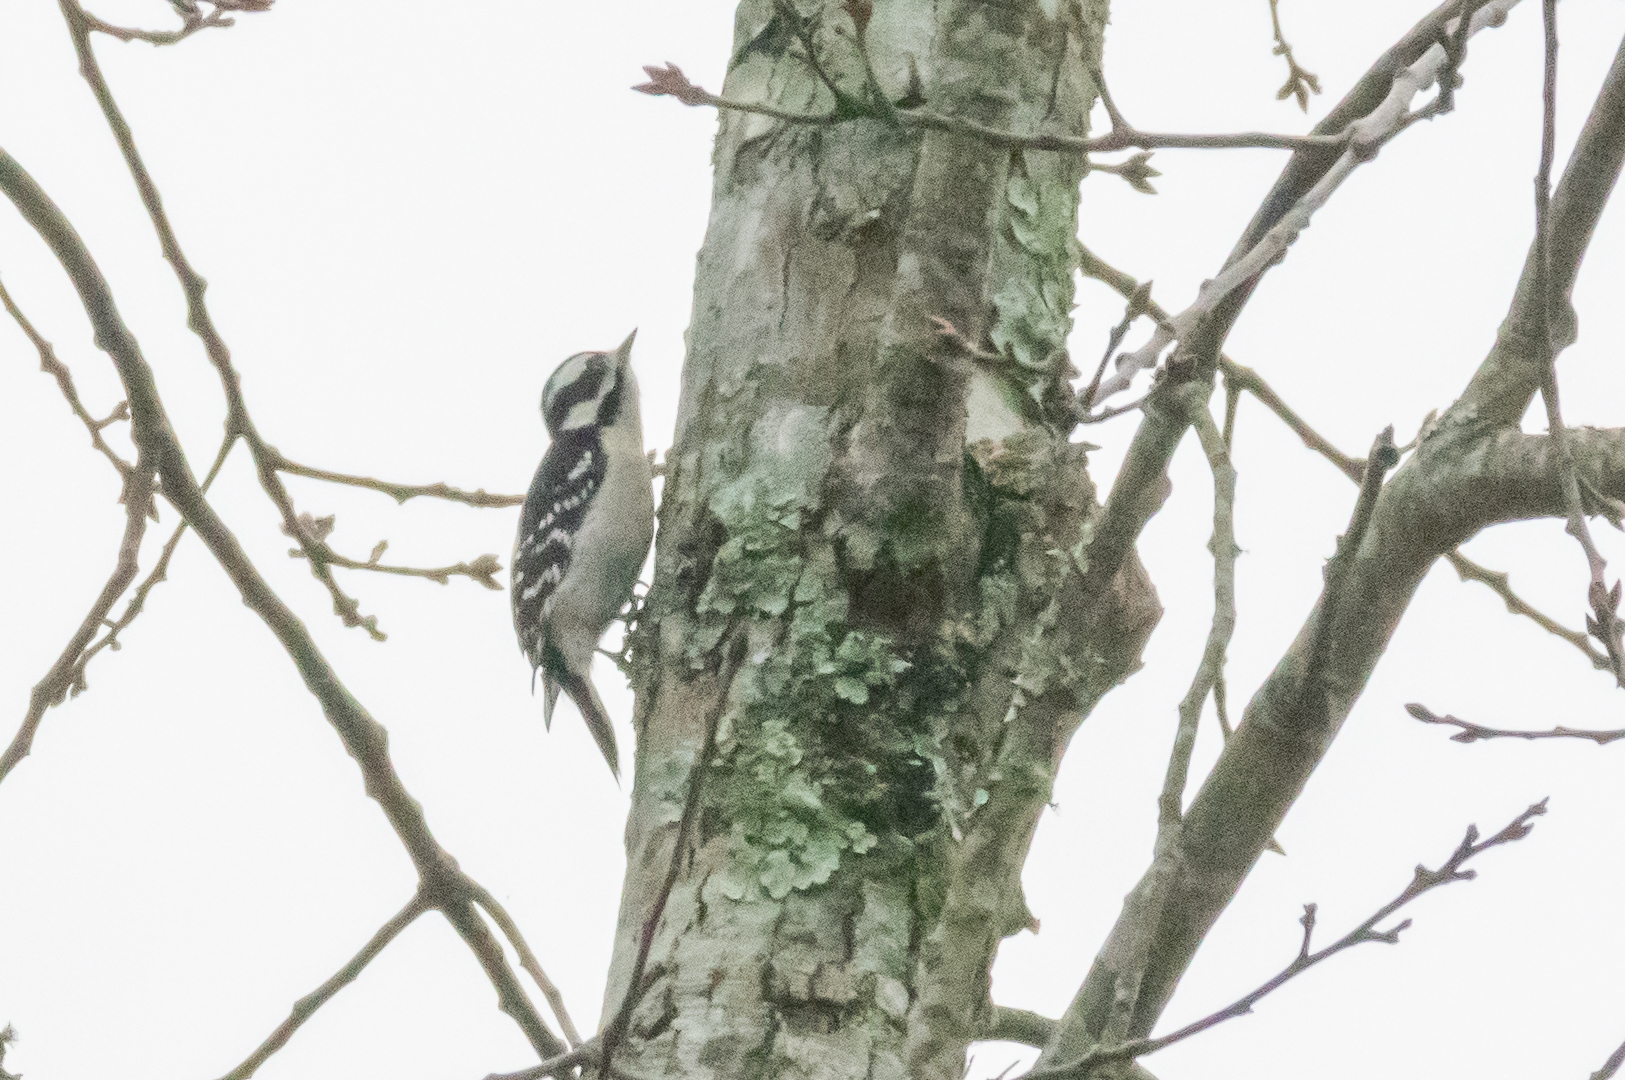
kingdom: Animalia
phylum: Chordata
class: Aves
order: Piciformes
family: Picidae
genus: Dryobates
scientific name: Dryobates pubescens
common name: Downy woodpecker
